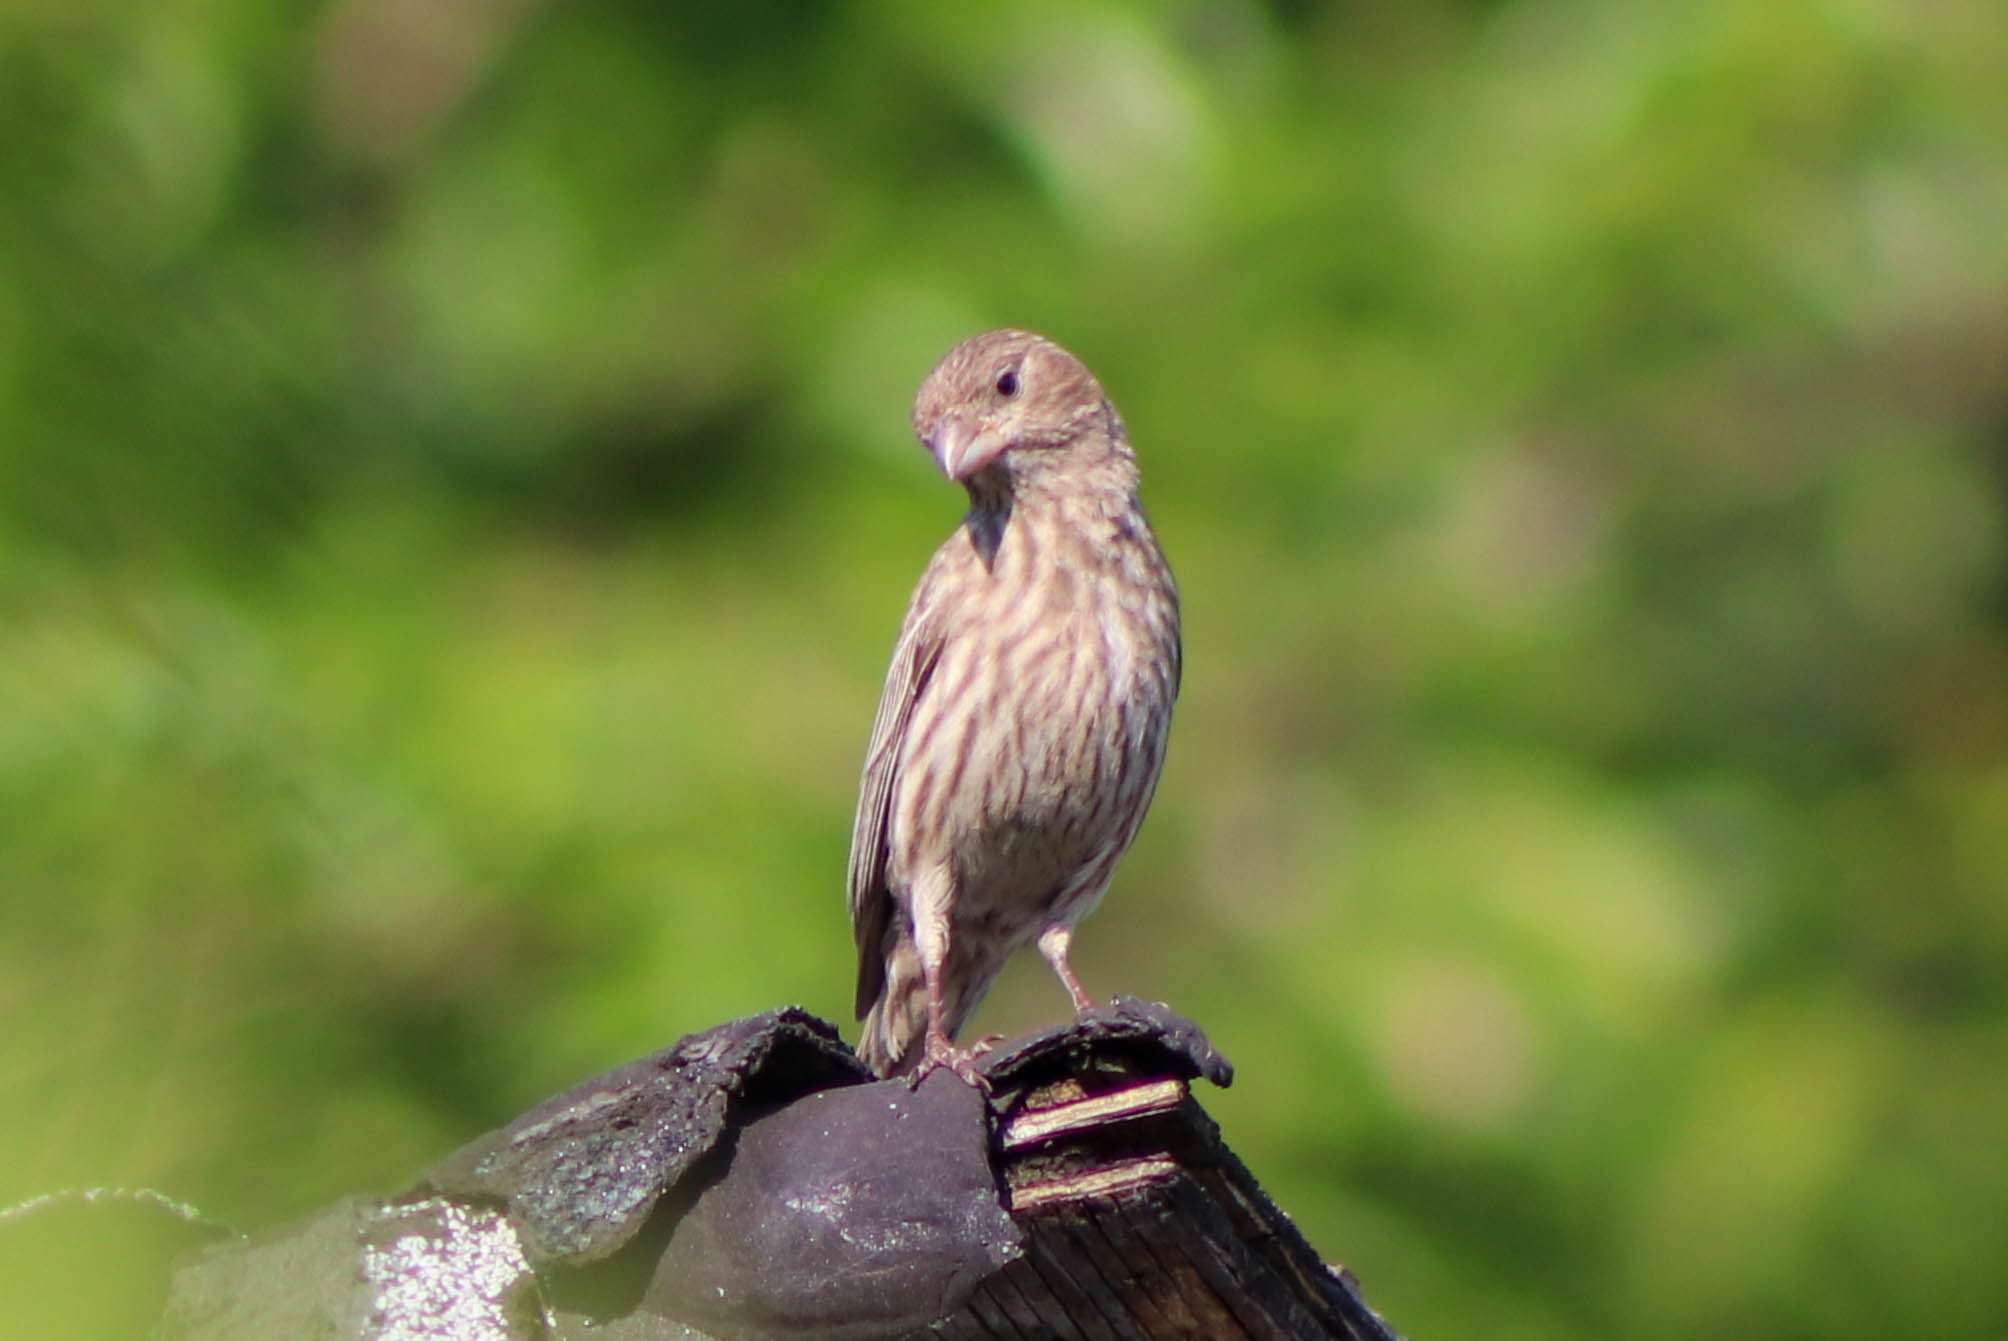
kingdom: Animalia
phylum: Chordata
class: Aves
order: Passeriformes
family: Fringillidae
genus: Haemorhous
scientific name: Haemorhous mexicanus
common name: House finch
